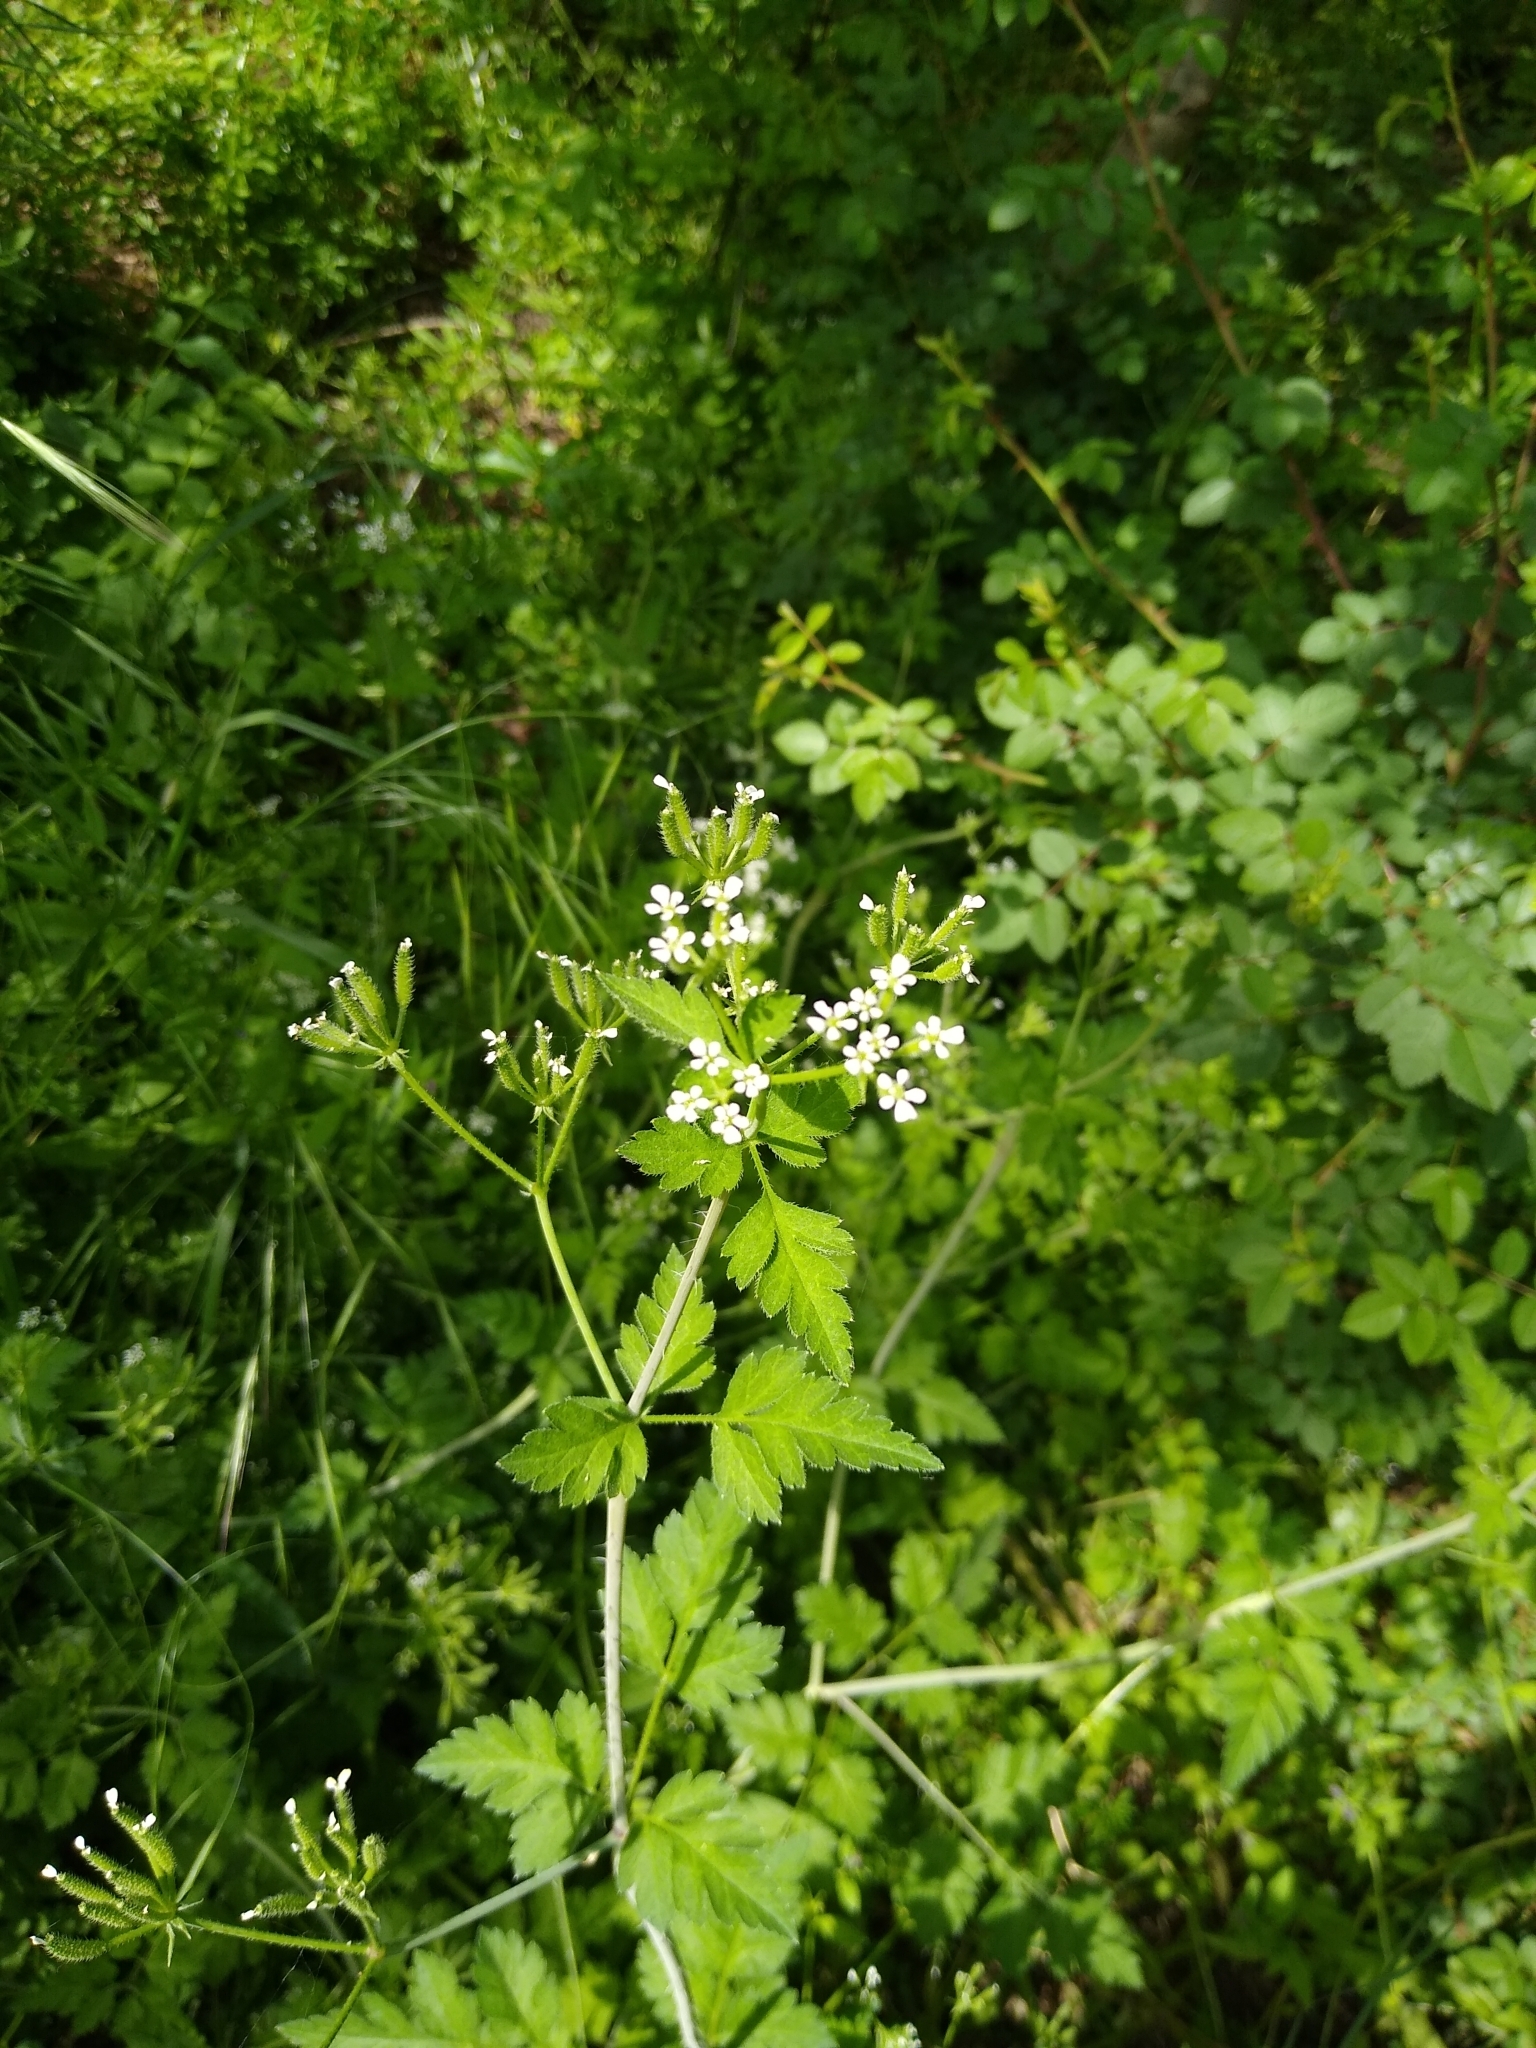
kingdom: Plantae
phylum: Tracheophyta
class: Magnoliopsida
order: Apiales
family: Apiaceae
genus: Chaerophyllum
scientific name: Chaerophyllum nodosum
